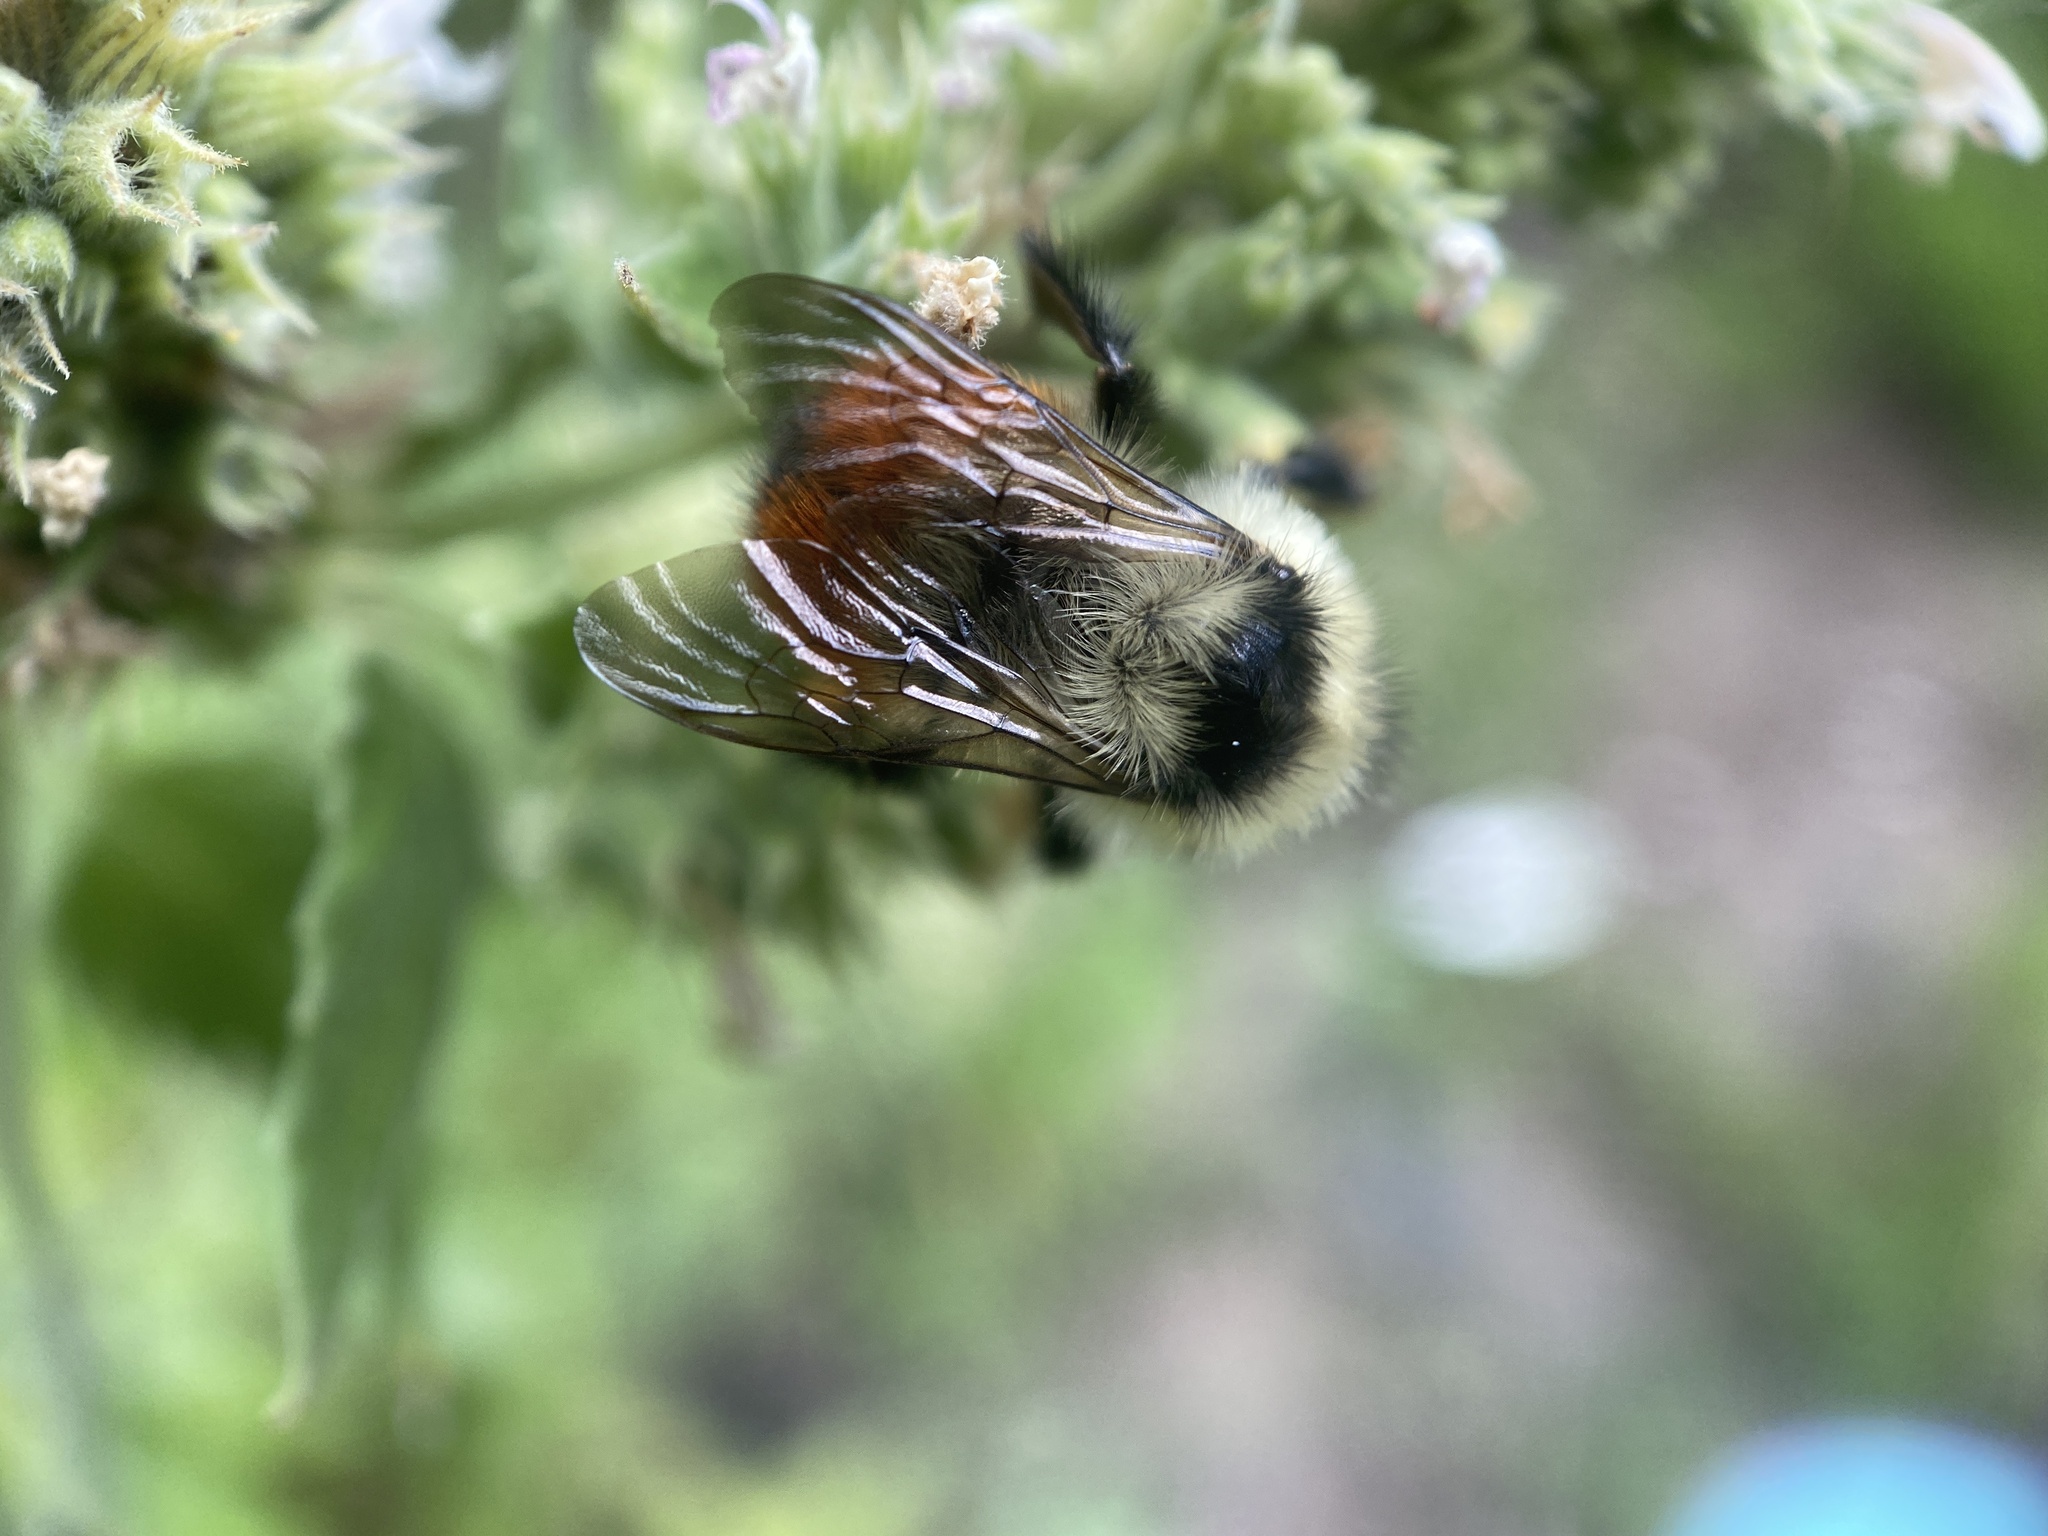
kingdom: Animalia
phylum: Arthropoda
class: Insecta
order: Hymenoptera
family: Apidae
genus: Bombus
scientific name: Bombus rufocinctus
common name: Red-belted bumble bee
